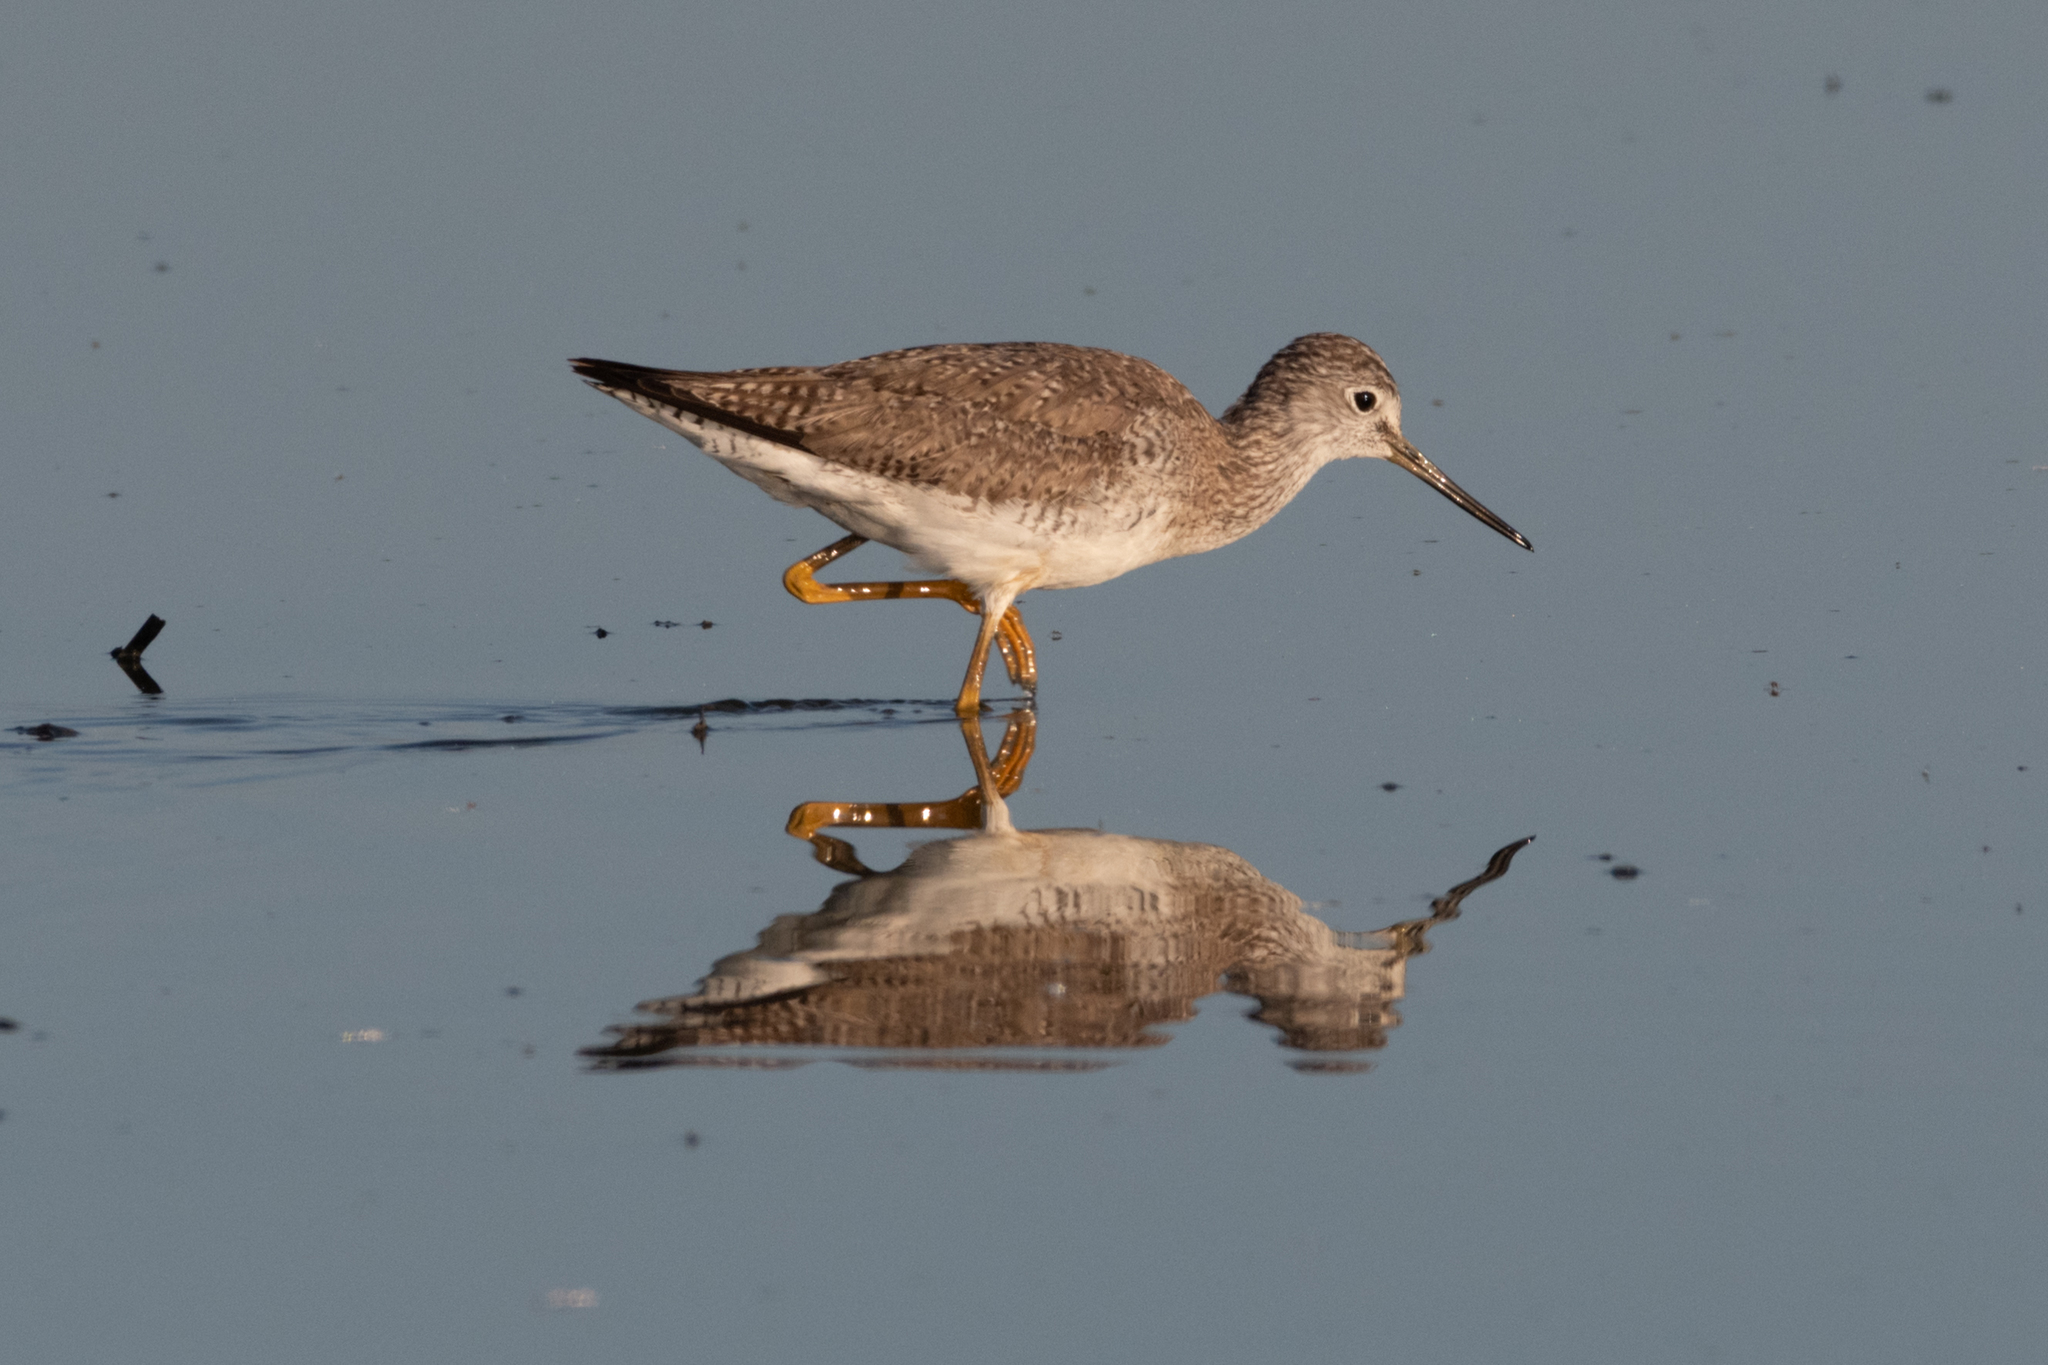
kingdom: Animalia
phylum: Chordata
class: Aves
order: Charadriiformes
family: Scolopacidae
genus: Tringa
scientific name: Tringa melanoleuca
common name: Greater yellowlegs
